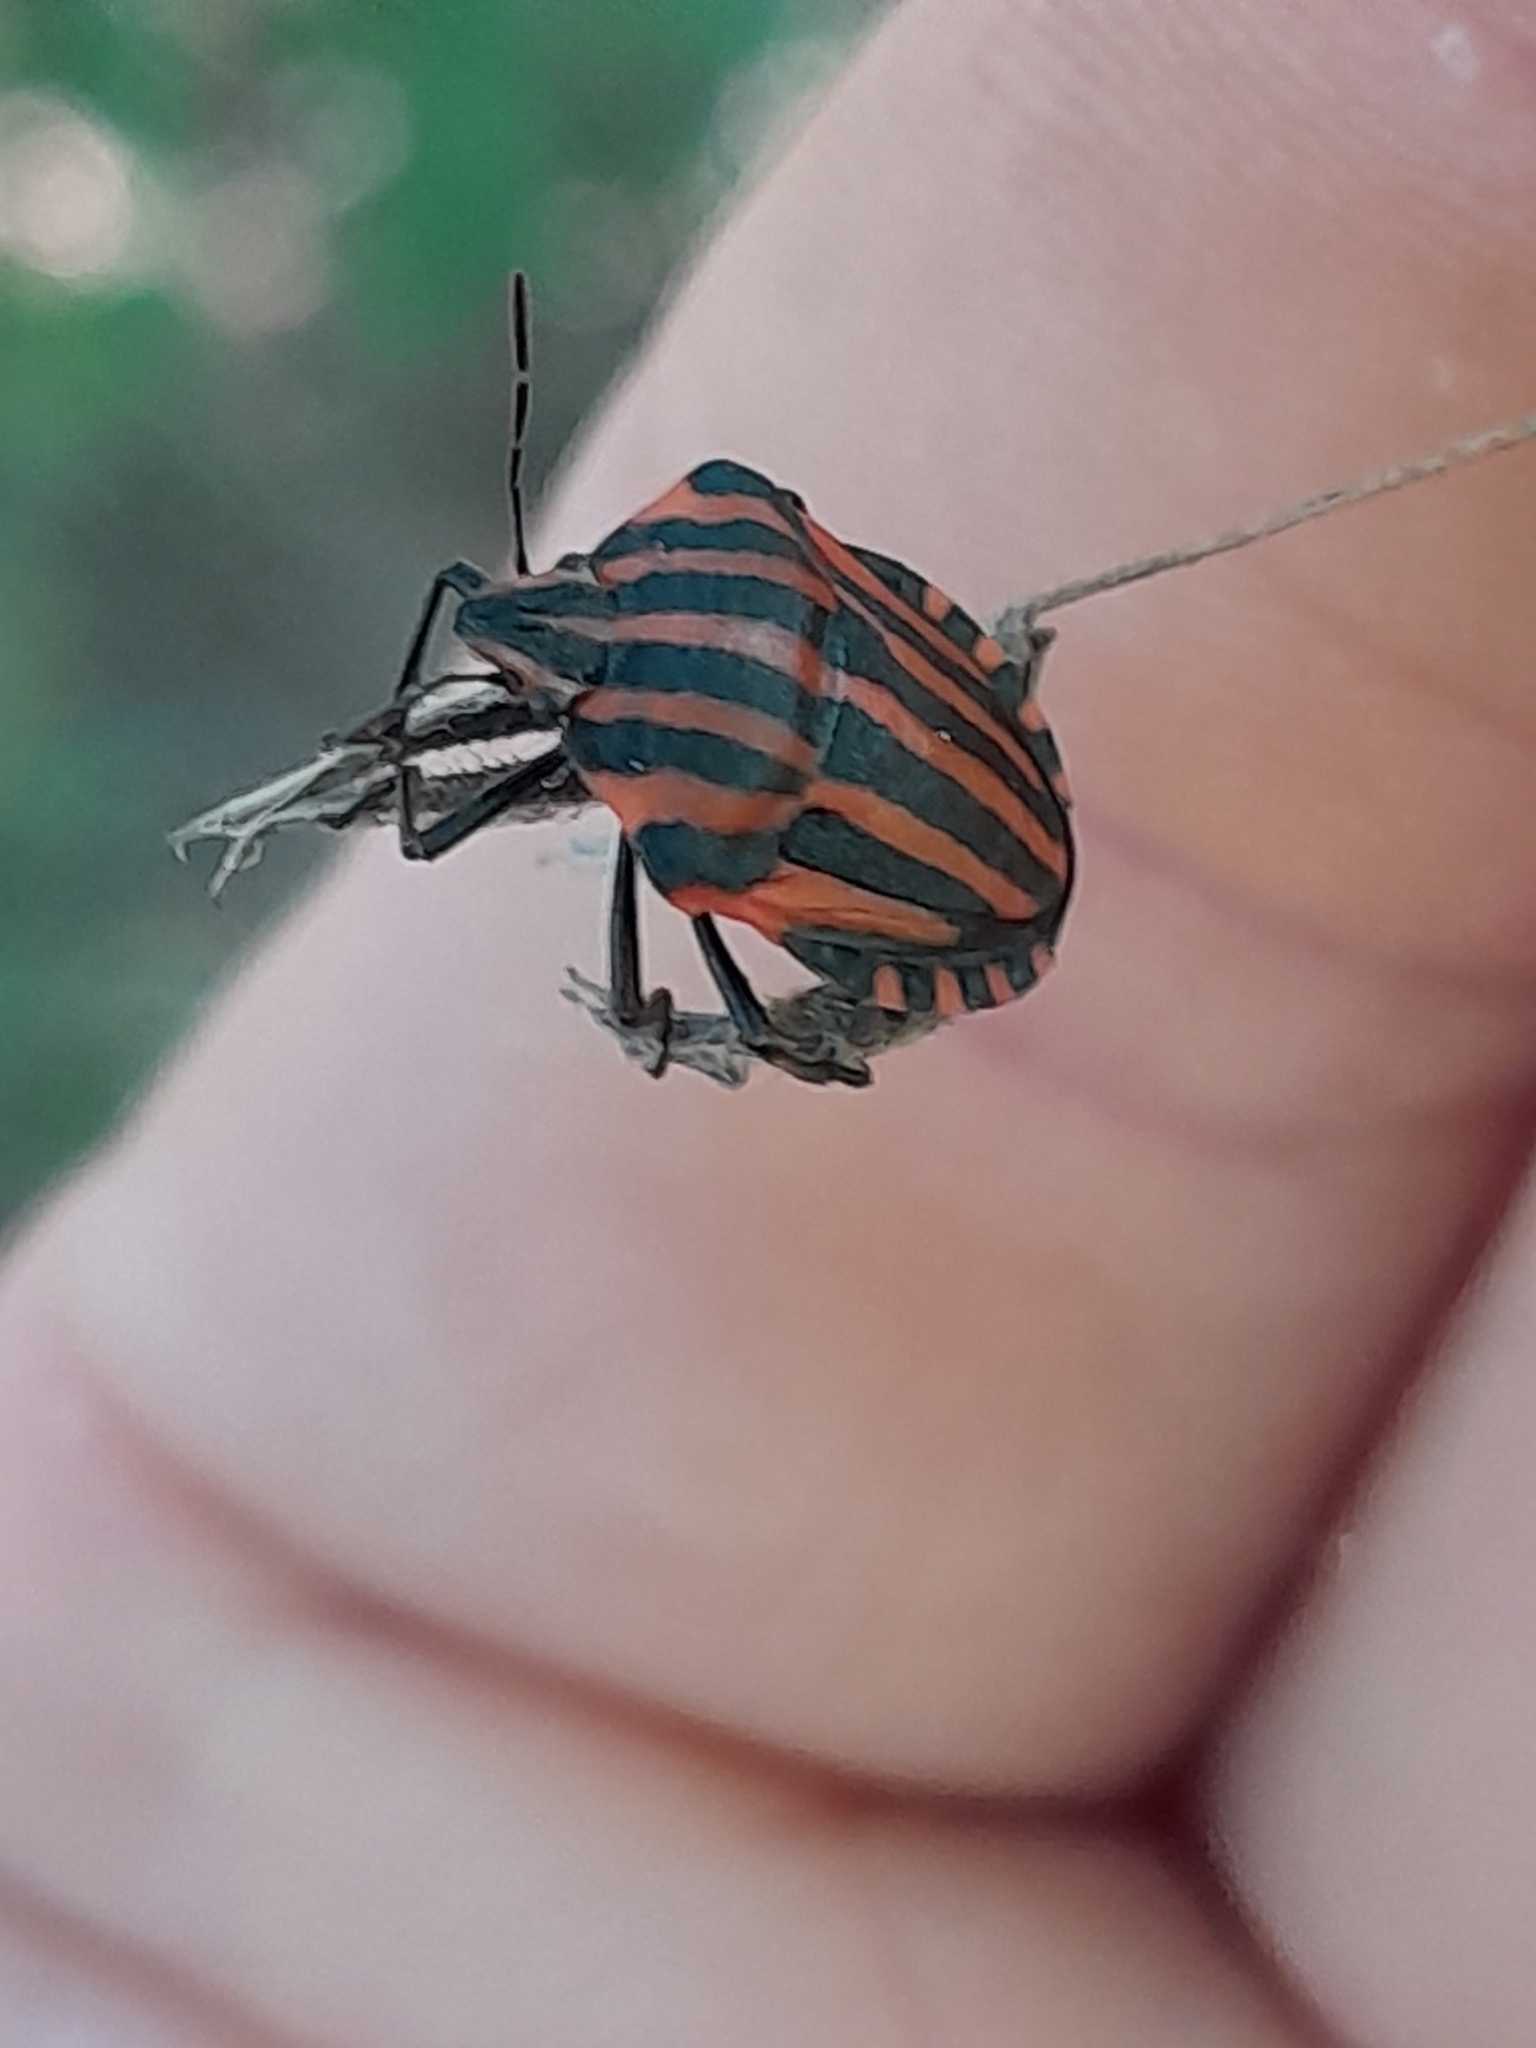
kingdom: Animalia
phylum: Arthropoda
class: Insecta
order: Hemiptera
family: Pentatomidae
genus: Graphosoma
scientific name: Graphosoma italicum
